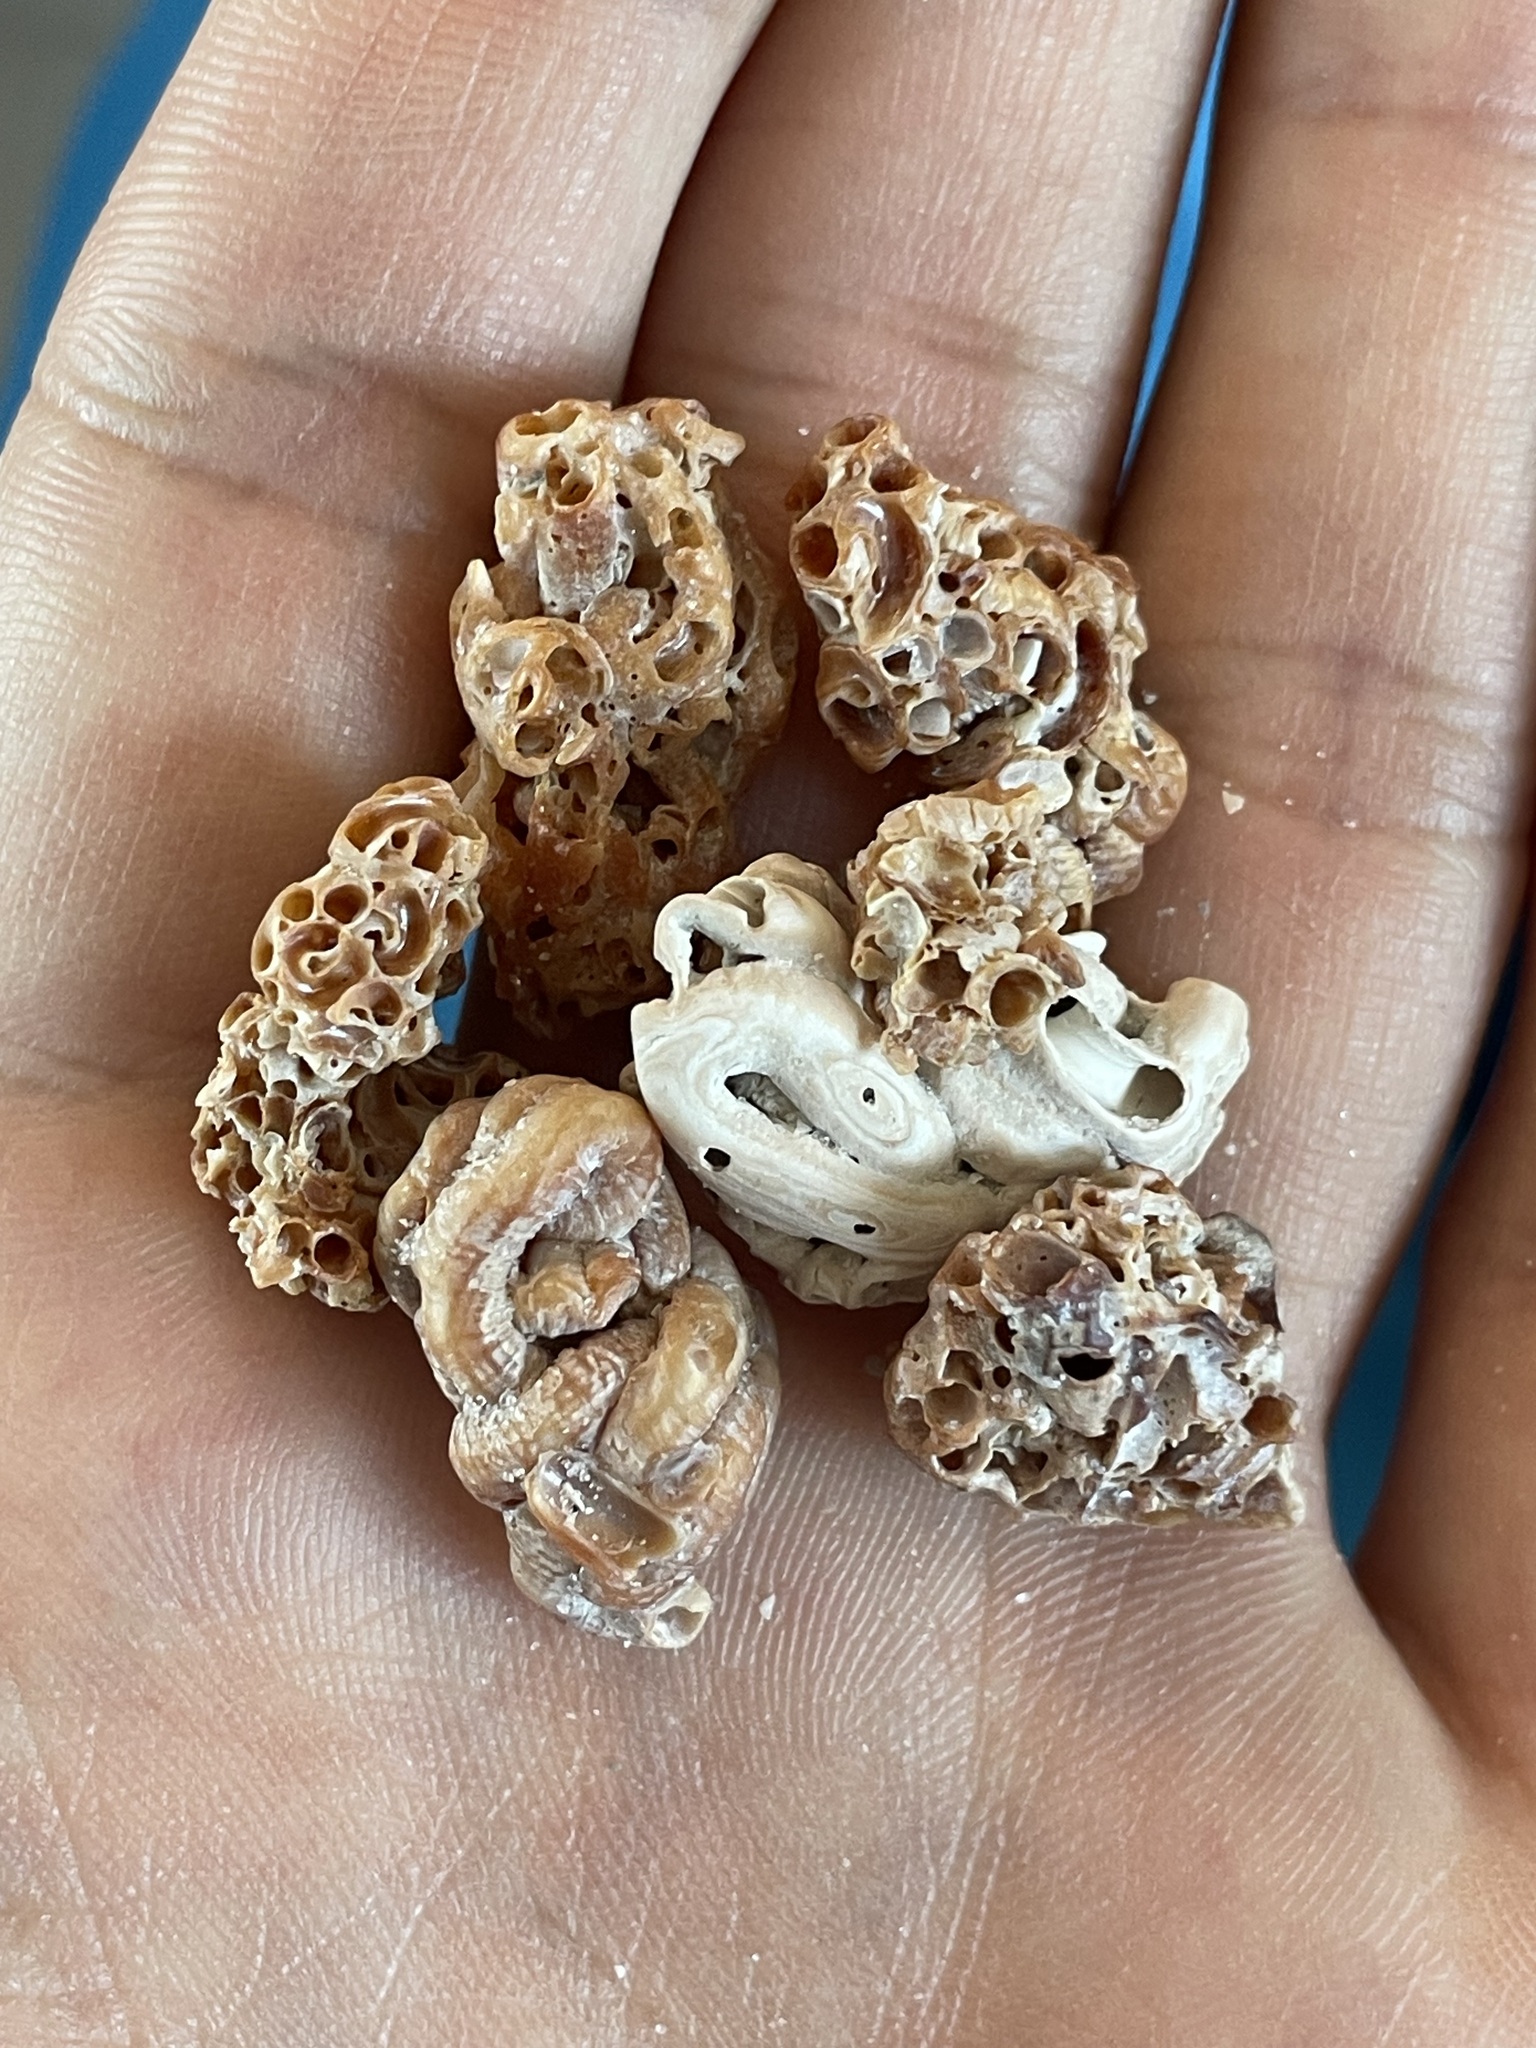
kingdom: Animalia
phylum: Mollusca
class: Gastropoda
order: Littorinimorpha
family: Vermetidae
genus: Petaloconchus
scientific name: Petaloconchus varians
